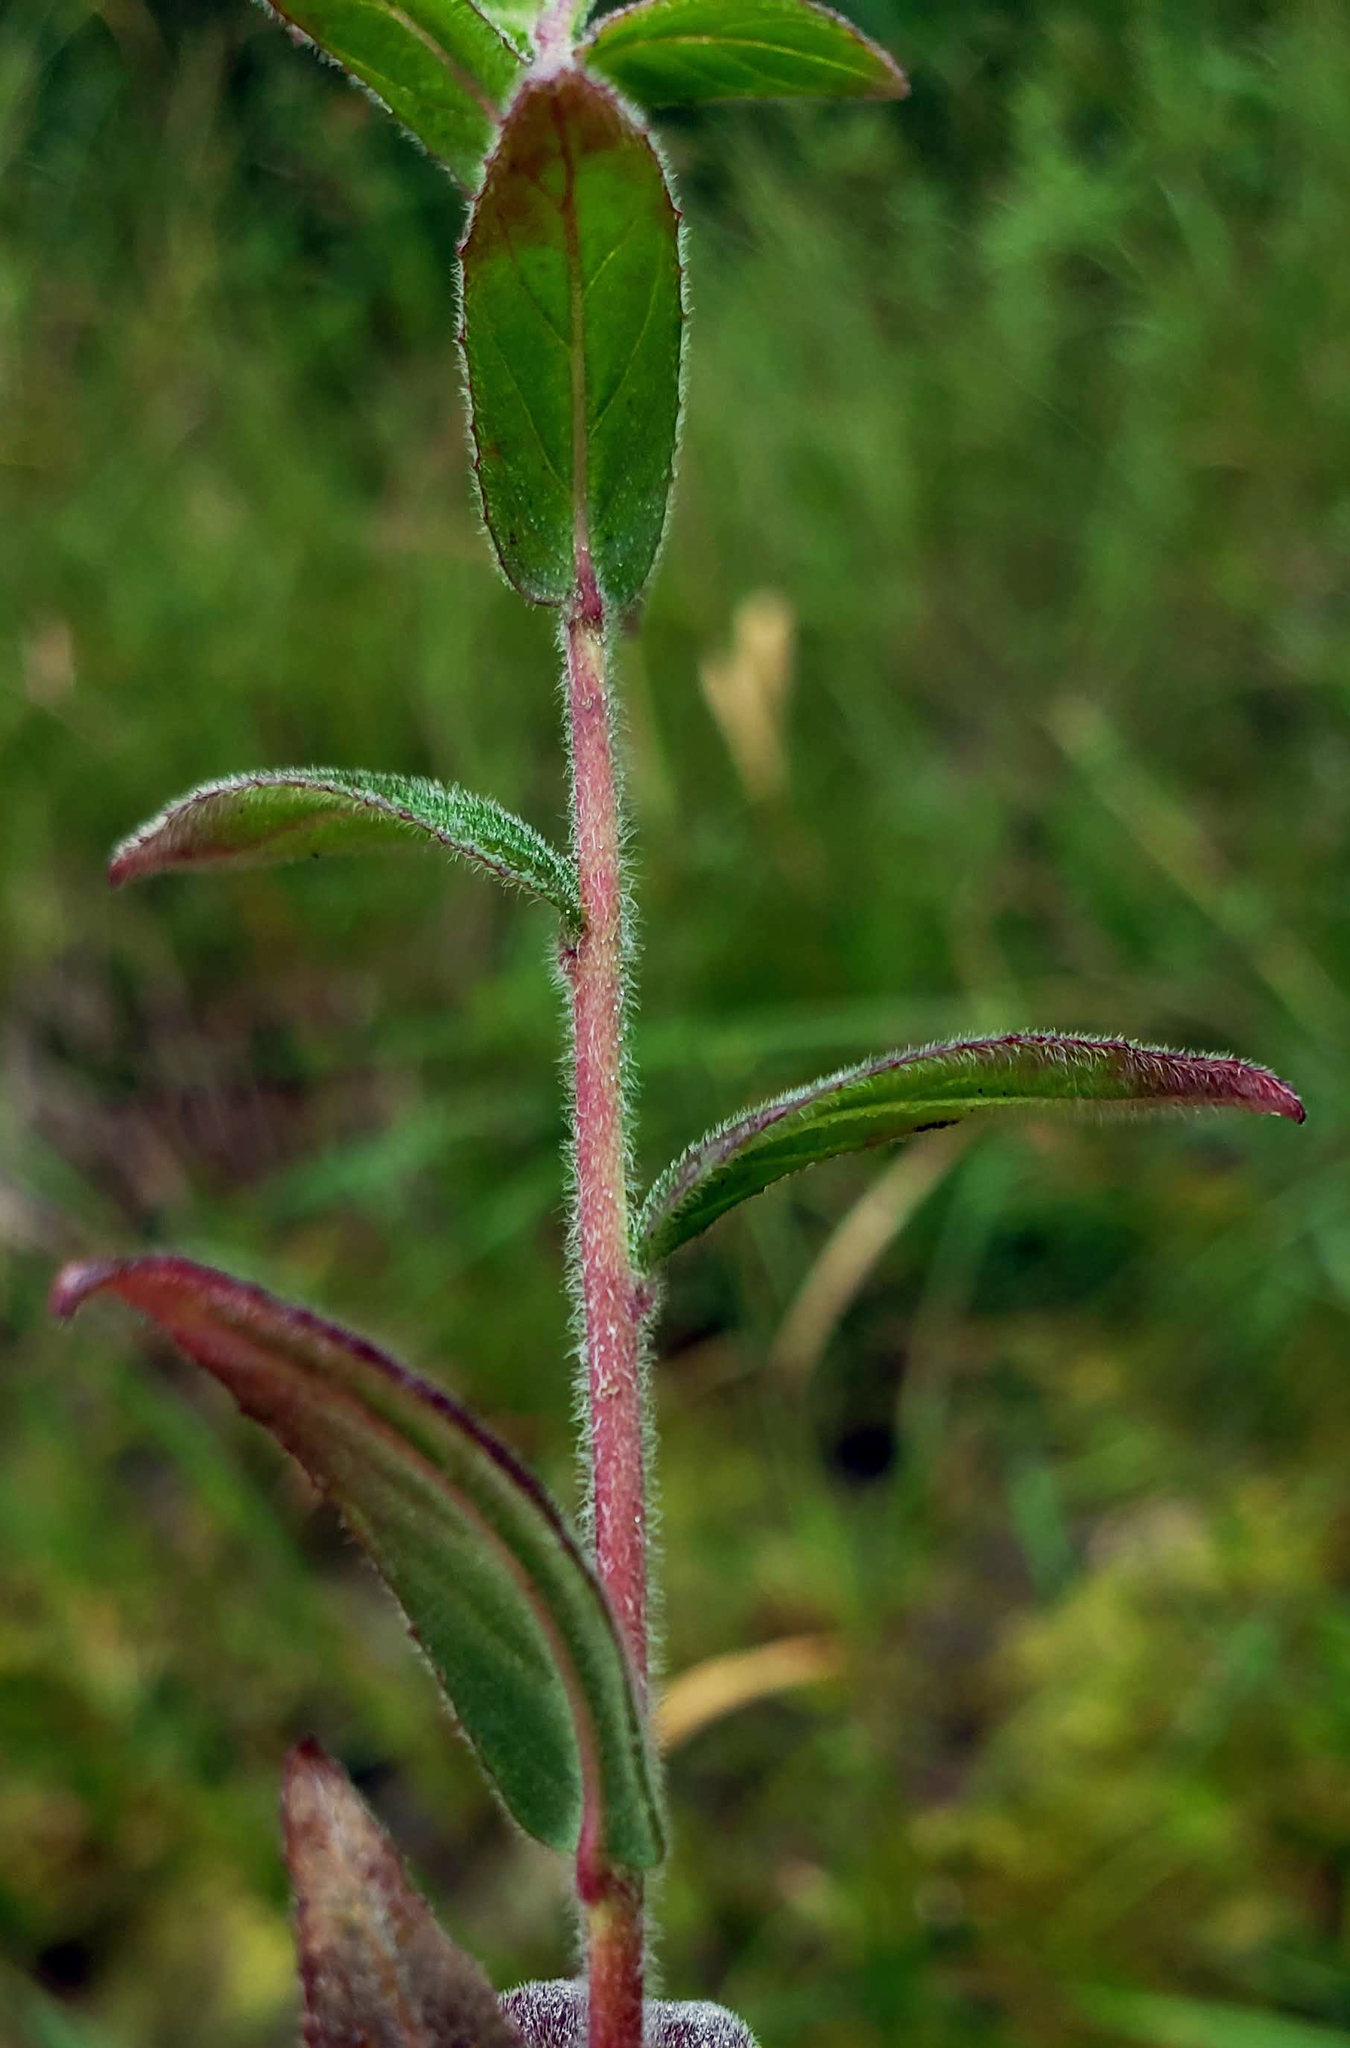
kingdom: Plantae
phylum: Tracheophyta
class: Magnoliopsida
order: Myrtales
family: Onagraceae
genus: Epilobium
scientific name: Epilobium parviflorum
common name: Hoary willowherb
